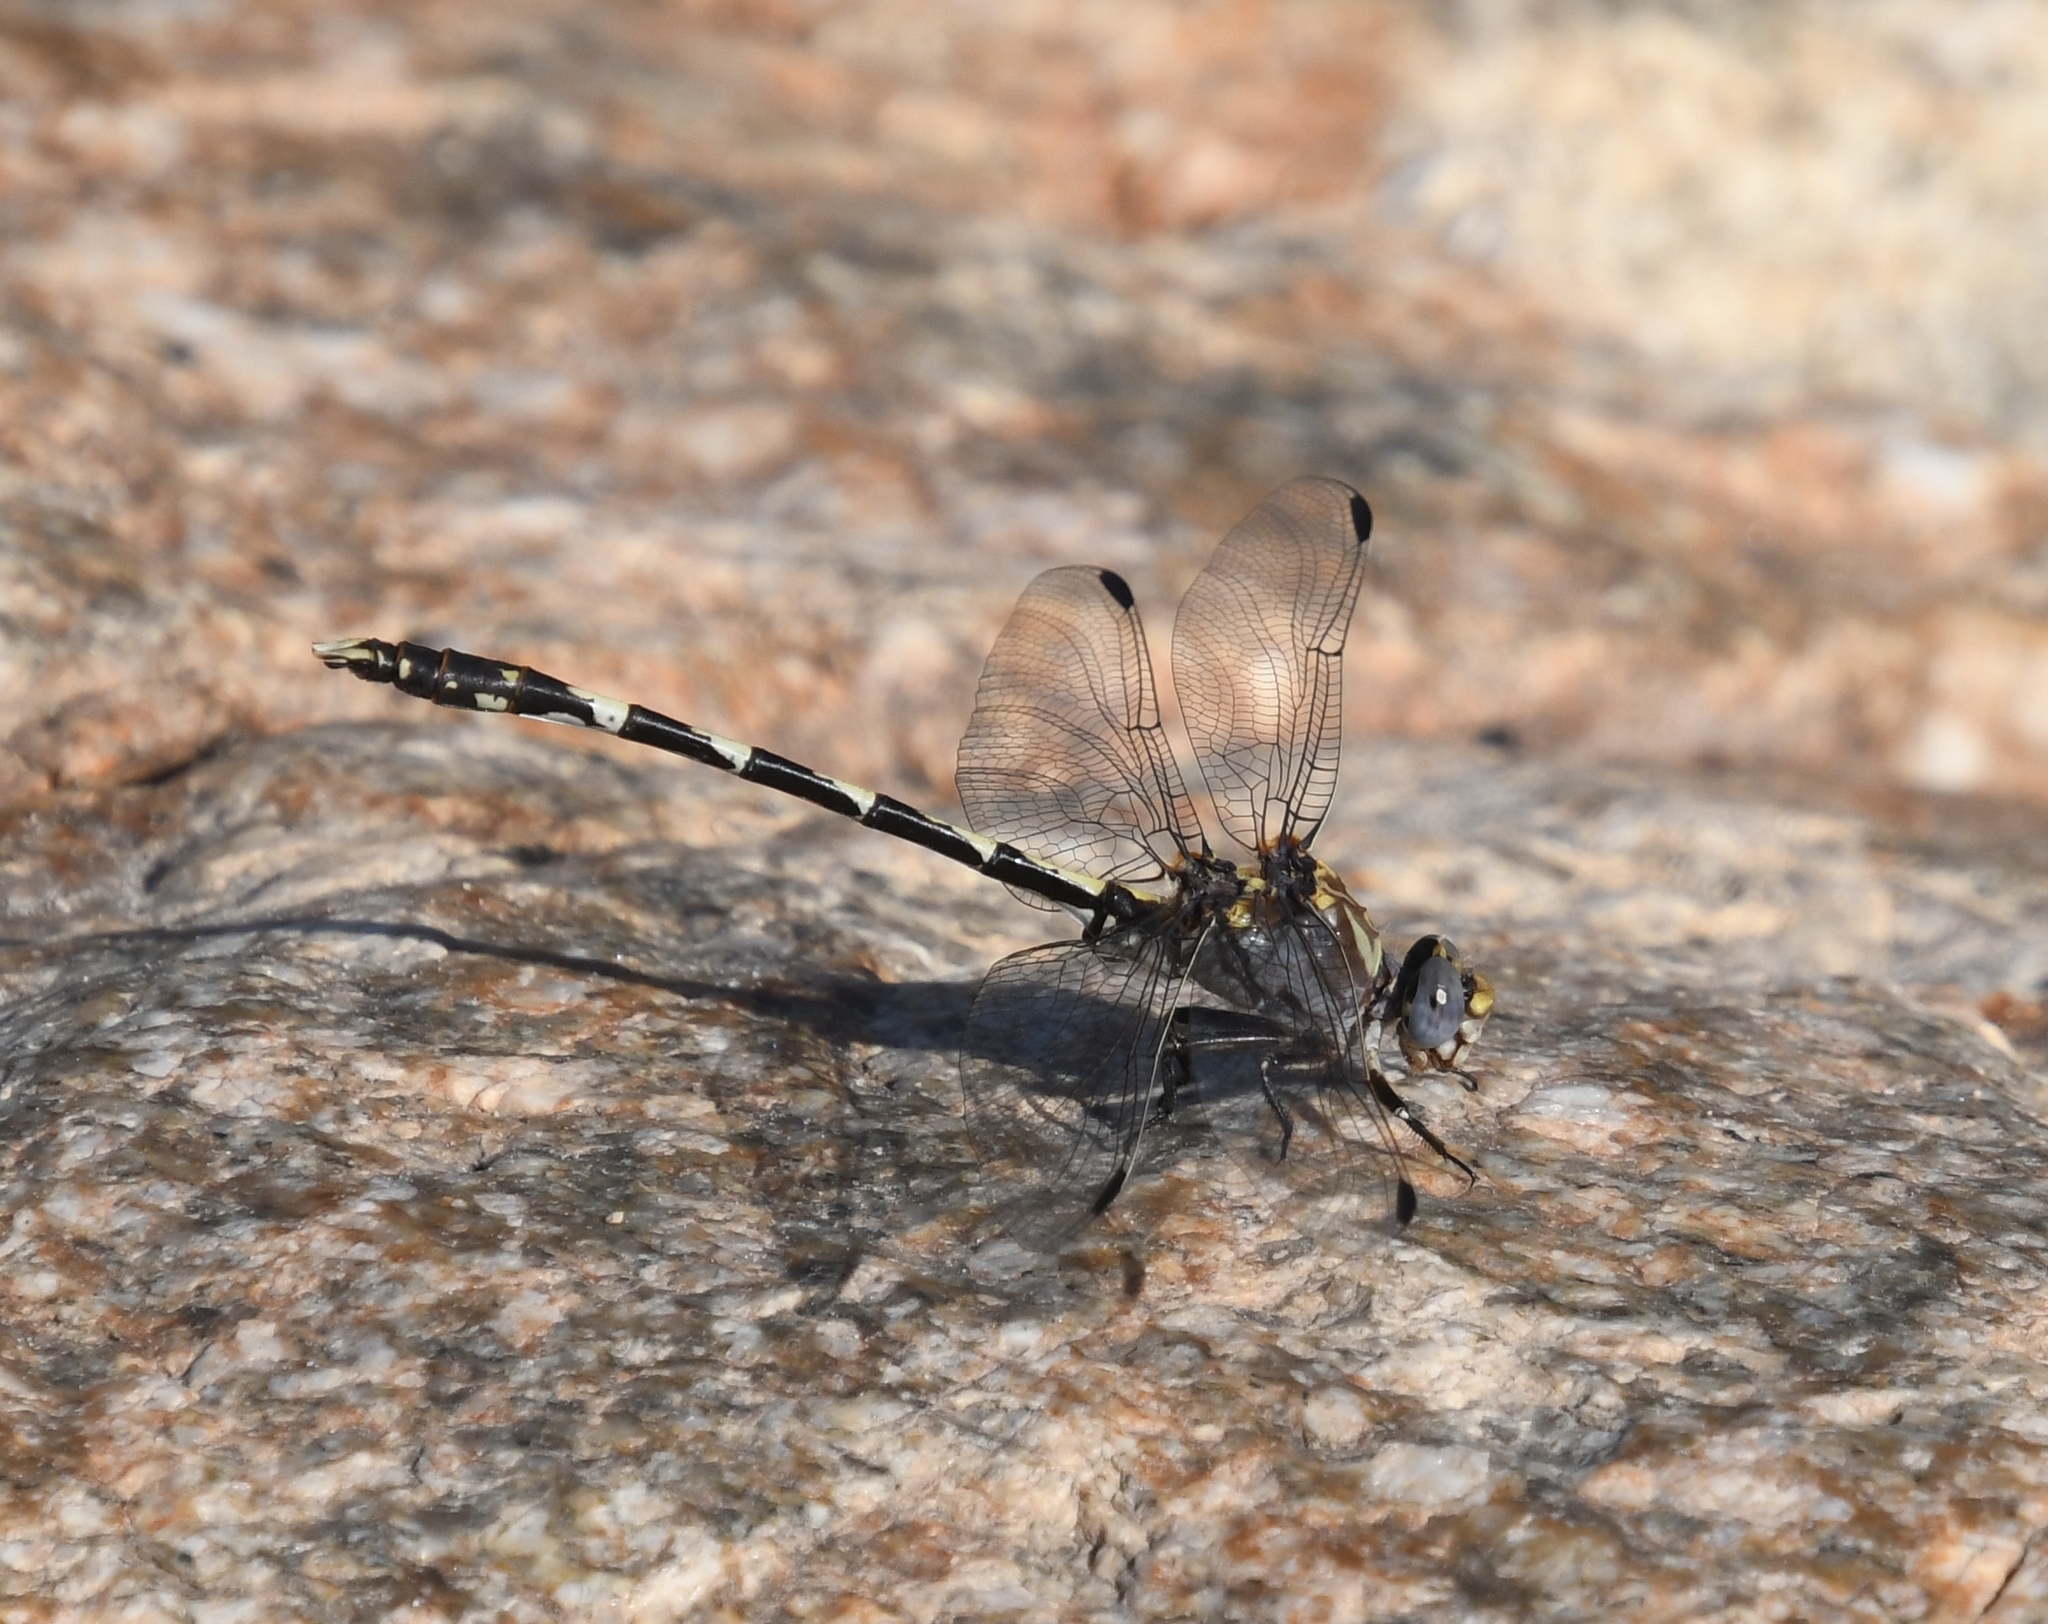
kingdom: Animalia
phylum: Arthropoda
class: Insecta
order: Odonata
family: Gomphidae
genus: Progomphus
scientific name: Progomphus borealis
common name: Gray sanddragon
